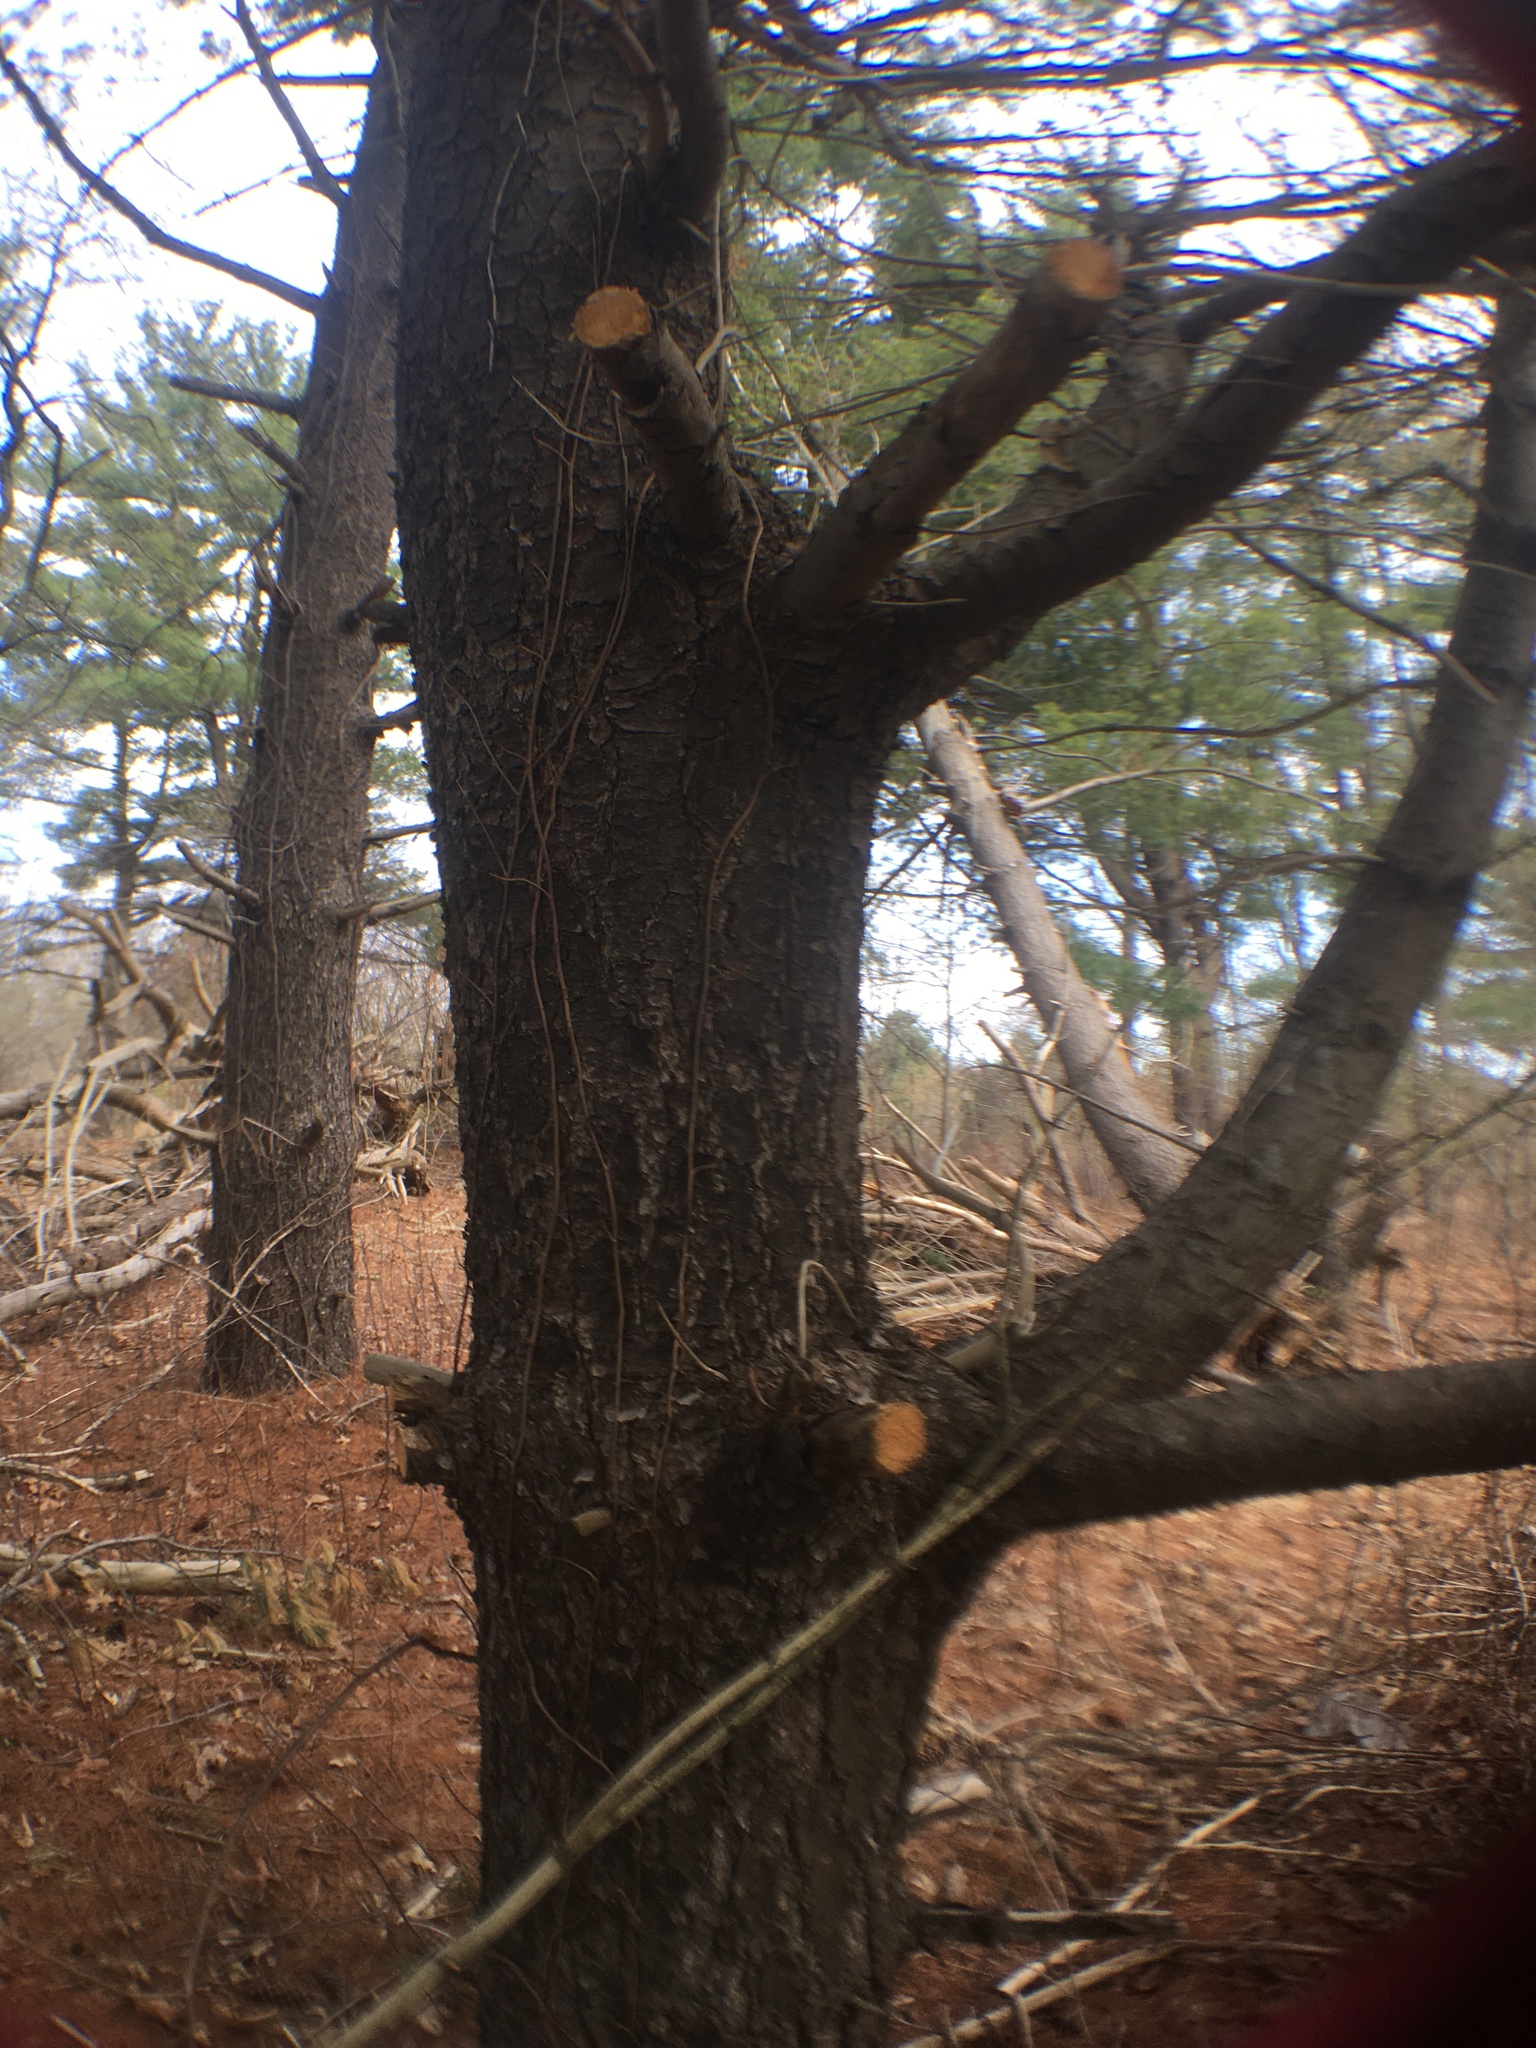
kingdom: Plantae
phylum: Tracheophyta
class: Pinopsida
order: Pinales
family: Pinaceae
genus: Pinus
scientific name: Pinus strobus
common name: Weymouth pine
